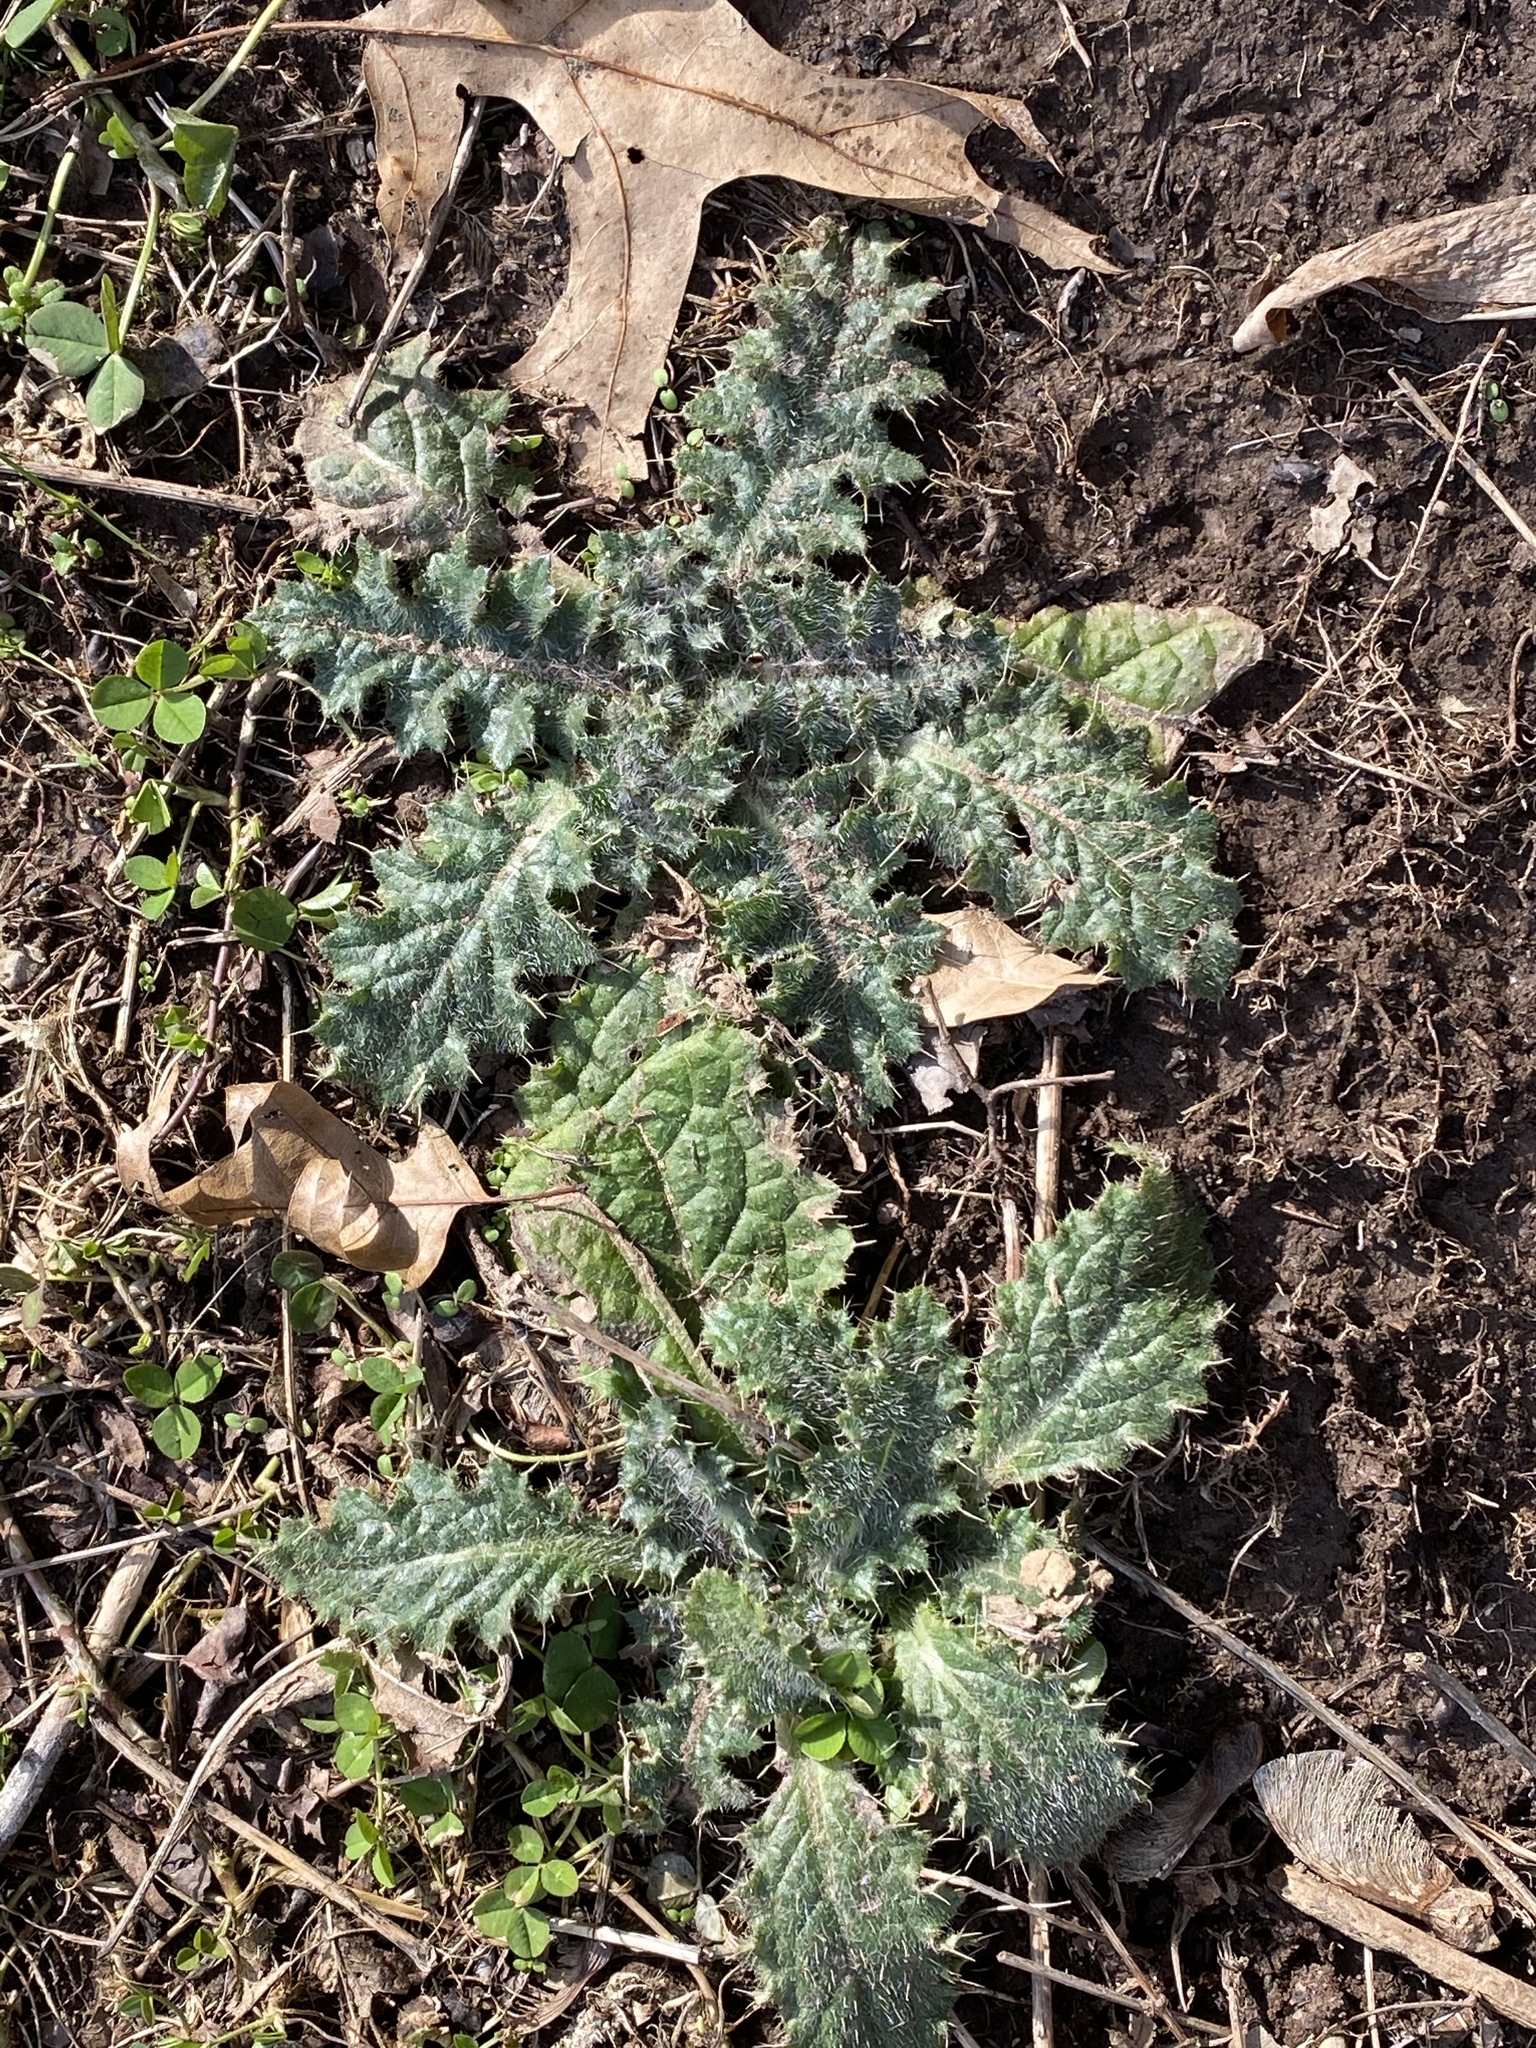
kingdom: Plantae
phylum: Tracheophyta
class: Magnoliopsida
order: Asterales
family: Asteraceae
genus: Cirsium
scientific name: Cirsium vulgare
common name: Bull thistle
